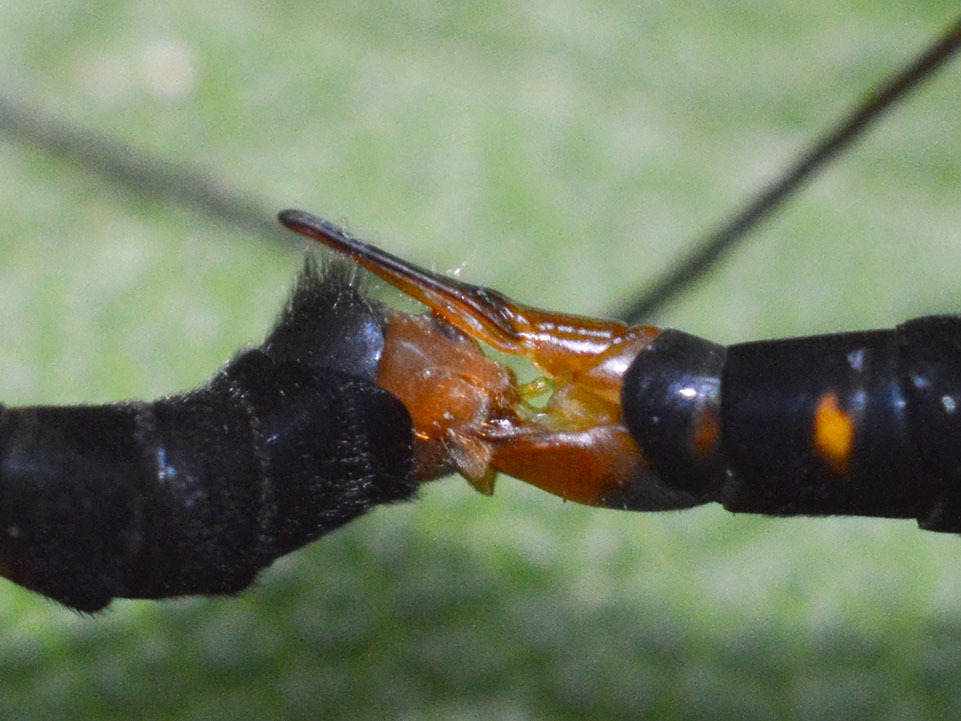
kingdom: Animalia
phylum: Arthropoda
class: Insecta
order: Diptera
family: Tipulidae
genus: Nephrotoma
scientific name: Nephrotoma crocata
